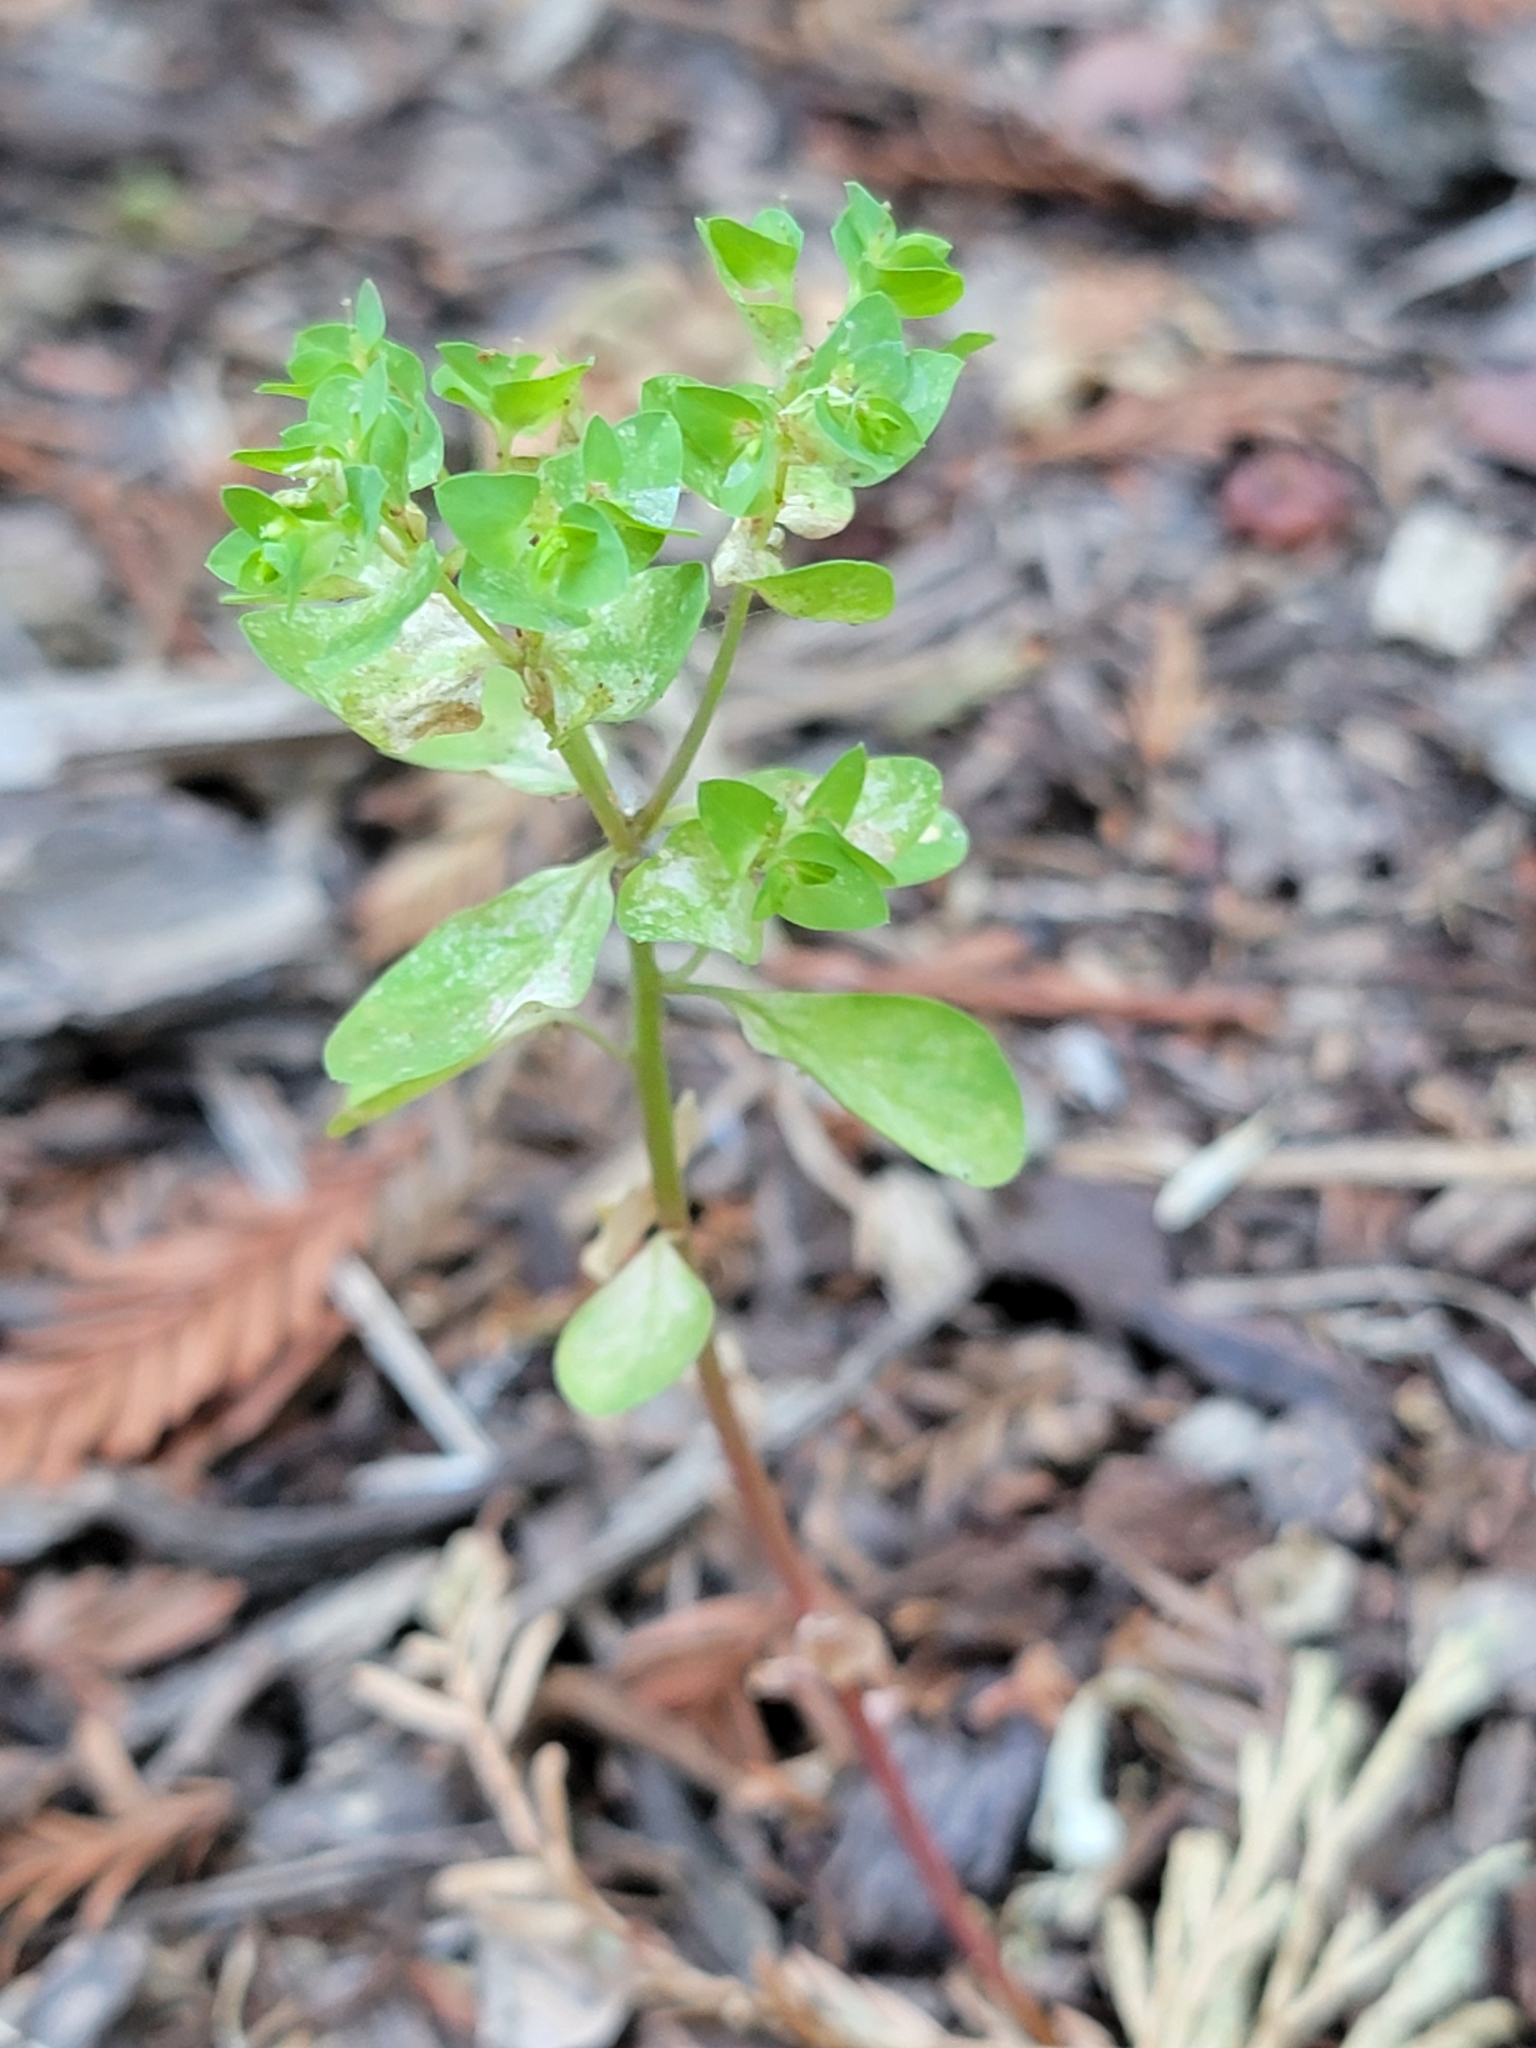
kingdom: Plantae
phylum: Tracheophyta
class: Magnoliopsida
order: Malpighiales
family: Euphorbiaceae
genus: Euphorbia
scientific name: Euphorbia peplus
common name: Petty spurge
